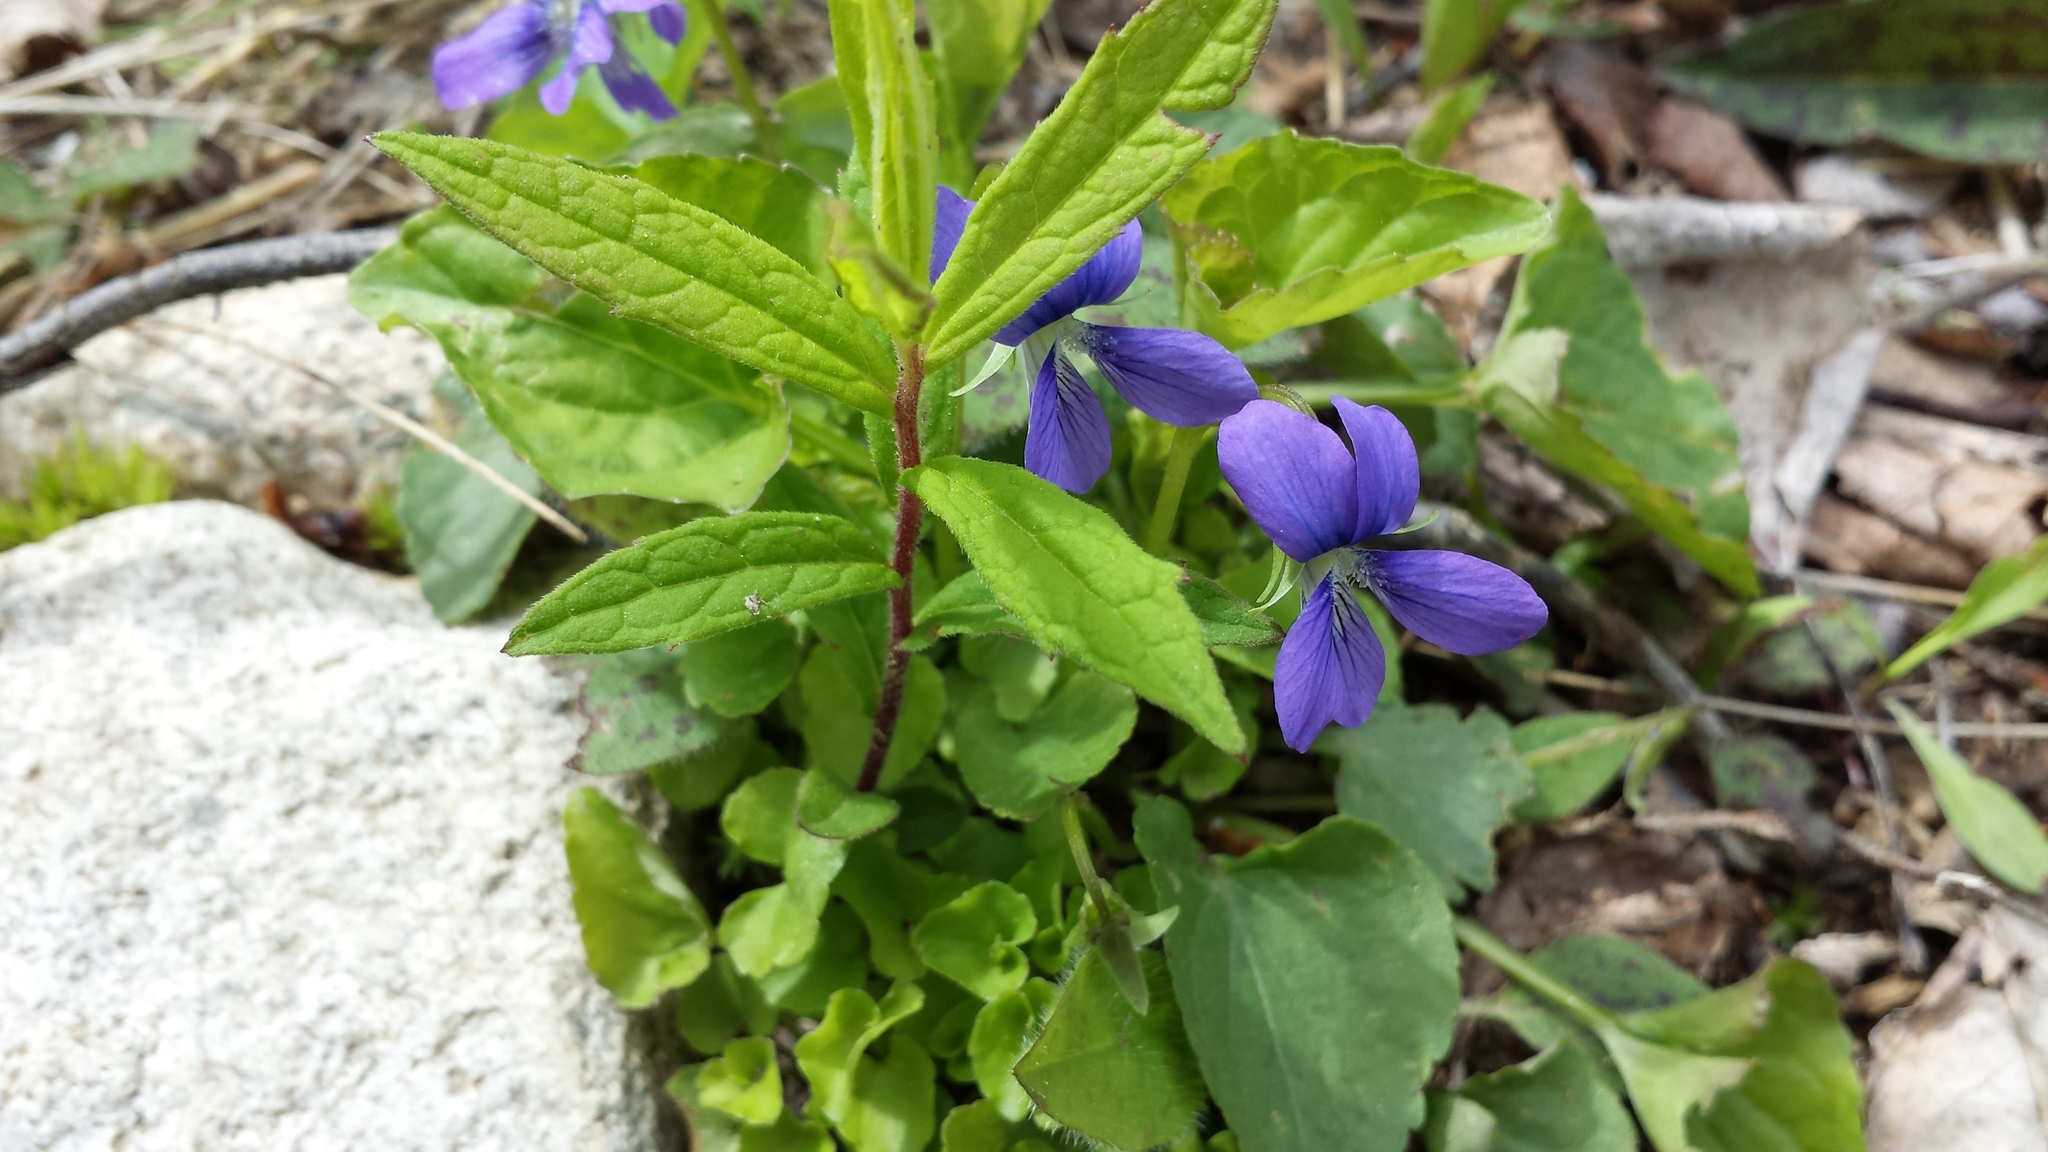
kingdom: Plantae
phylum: Tracheophyta
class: Magnoliopsida
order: Malpighiales
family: Violaceae
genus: Viola
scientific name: Viola cucullata
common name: Marsh blue violet
